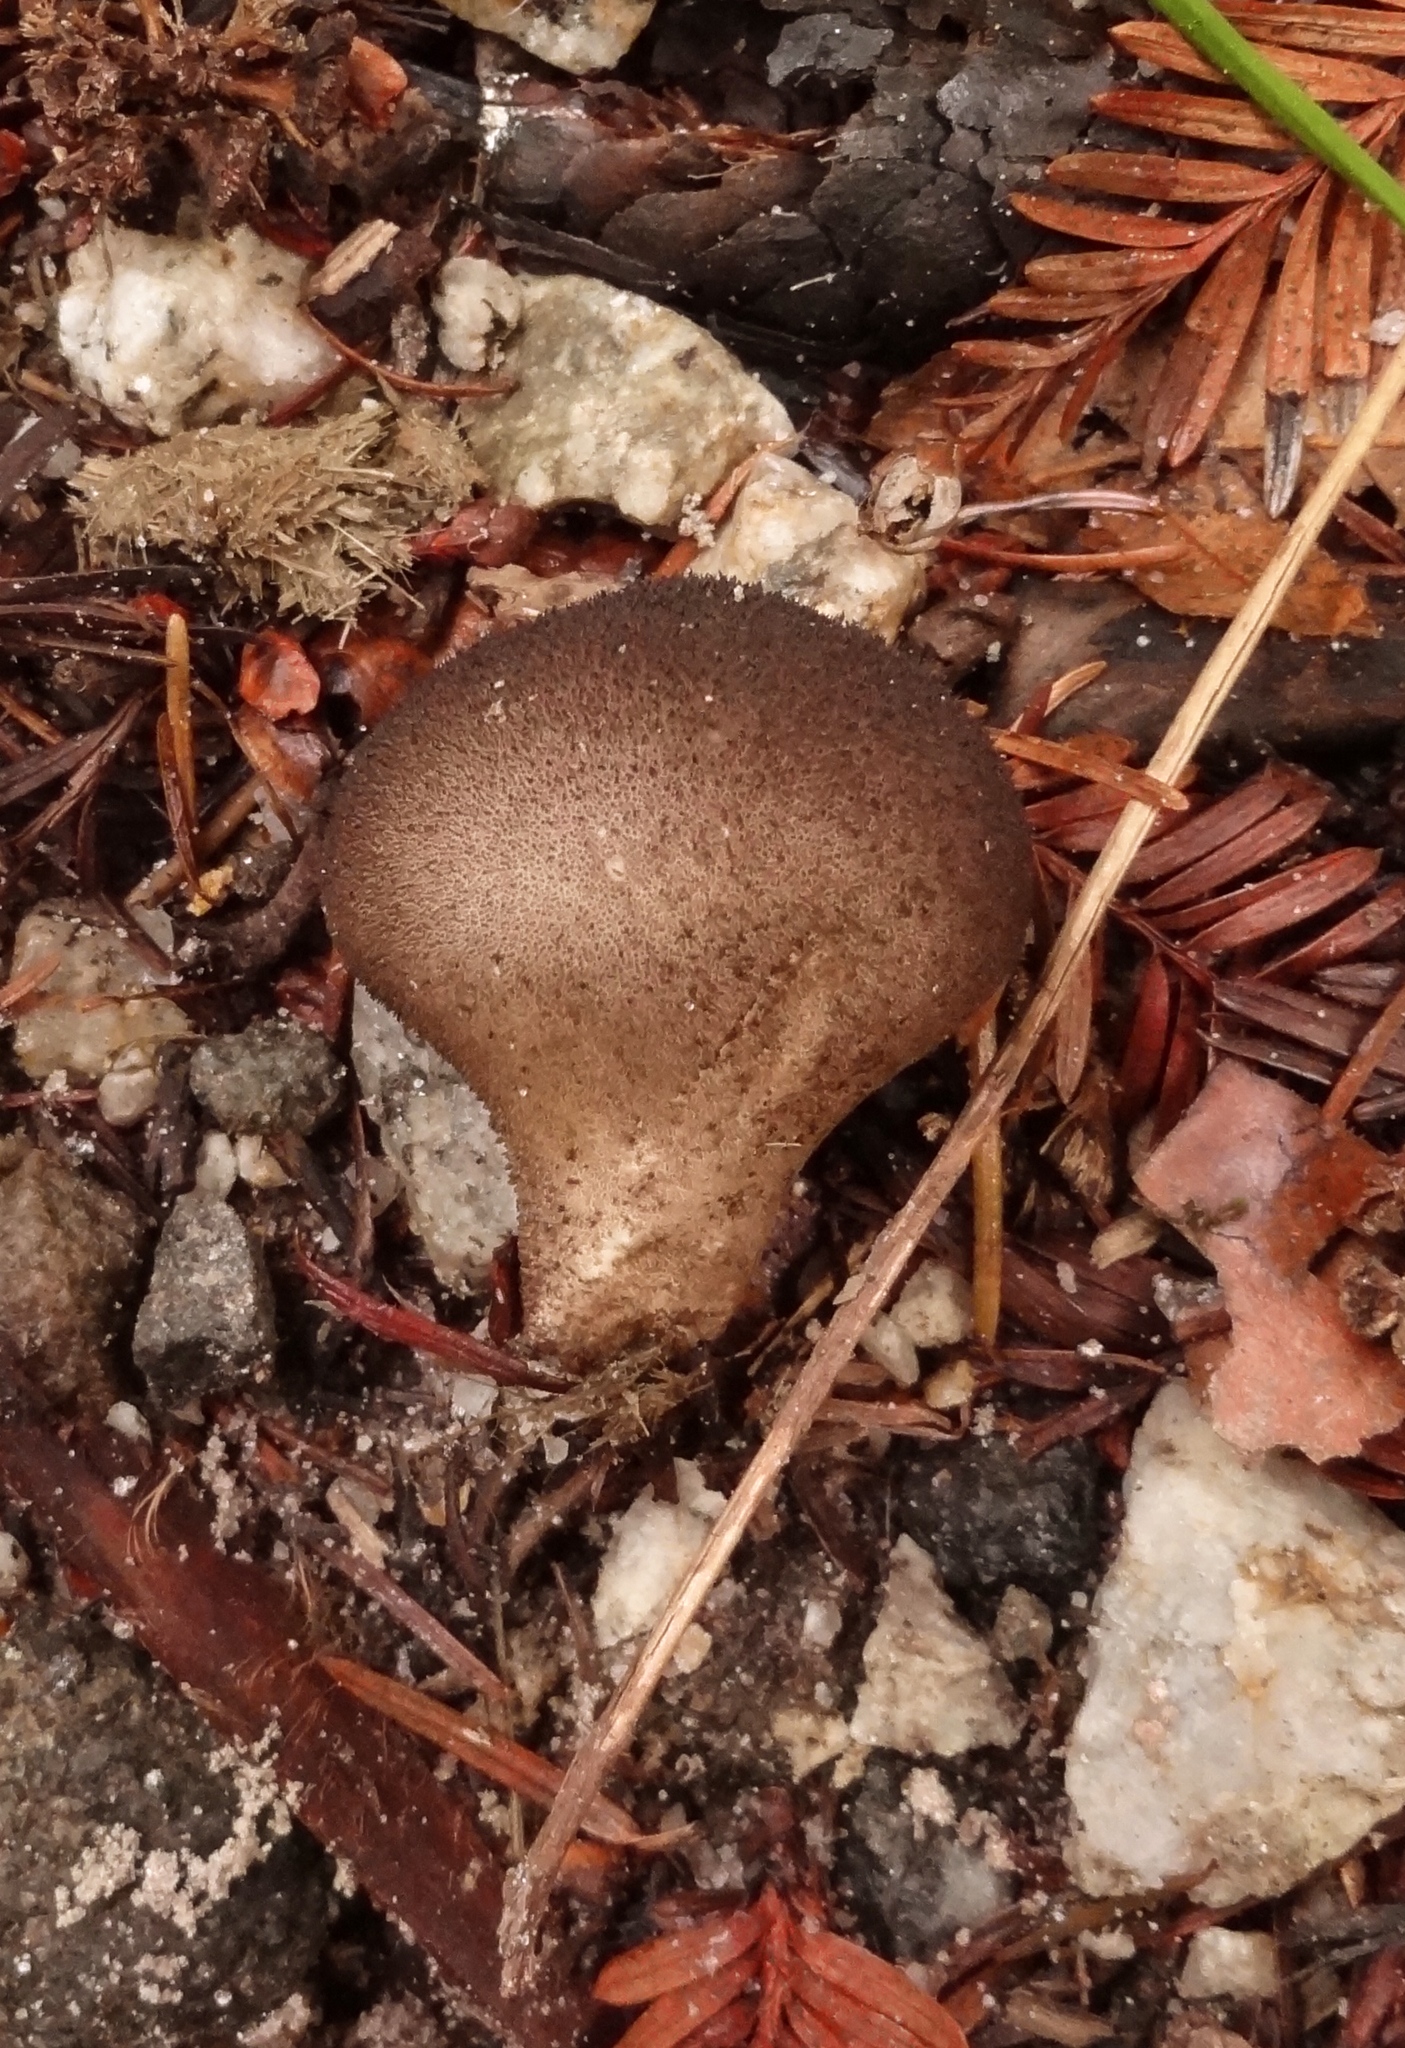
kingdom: Fungi
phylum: Basidiomycota
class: Agaricomycetes
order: Agaricales
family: Lycoperdaceae
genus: Lycoperdon
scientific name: Lycoperdon umbrinum
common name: Umber-brown puffball
